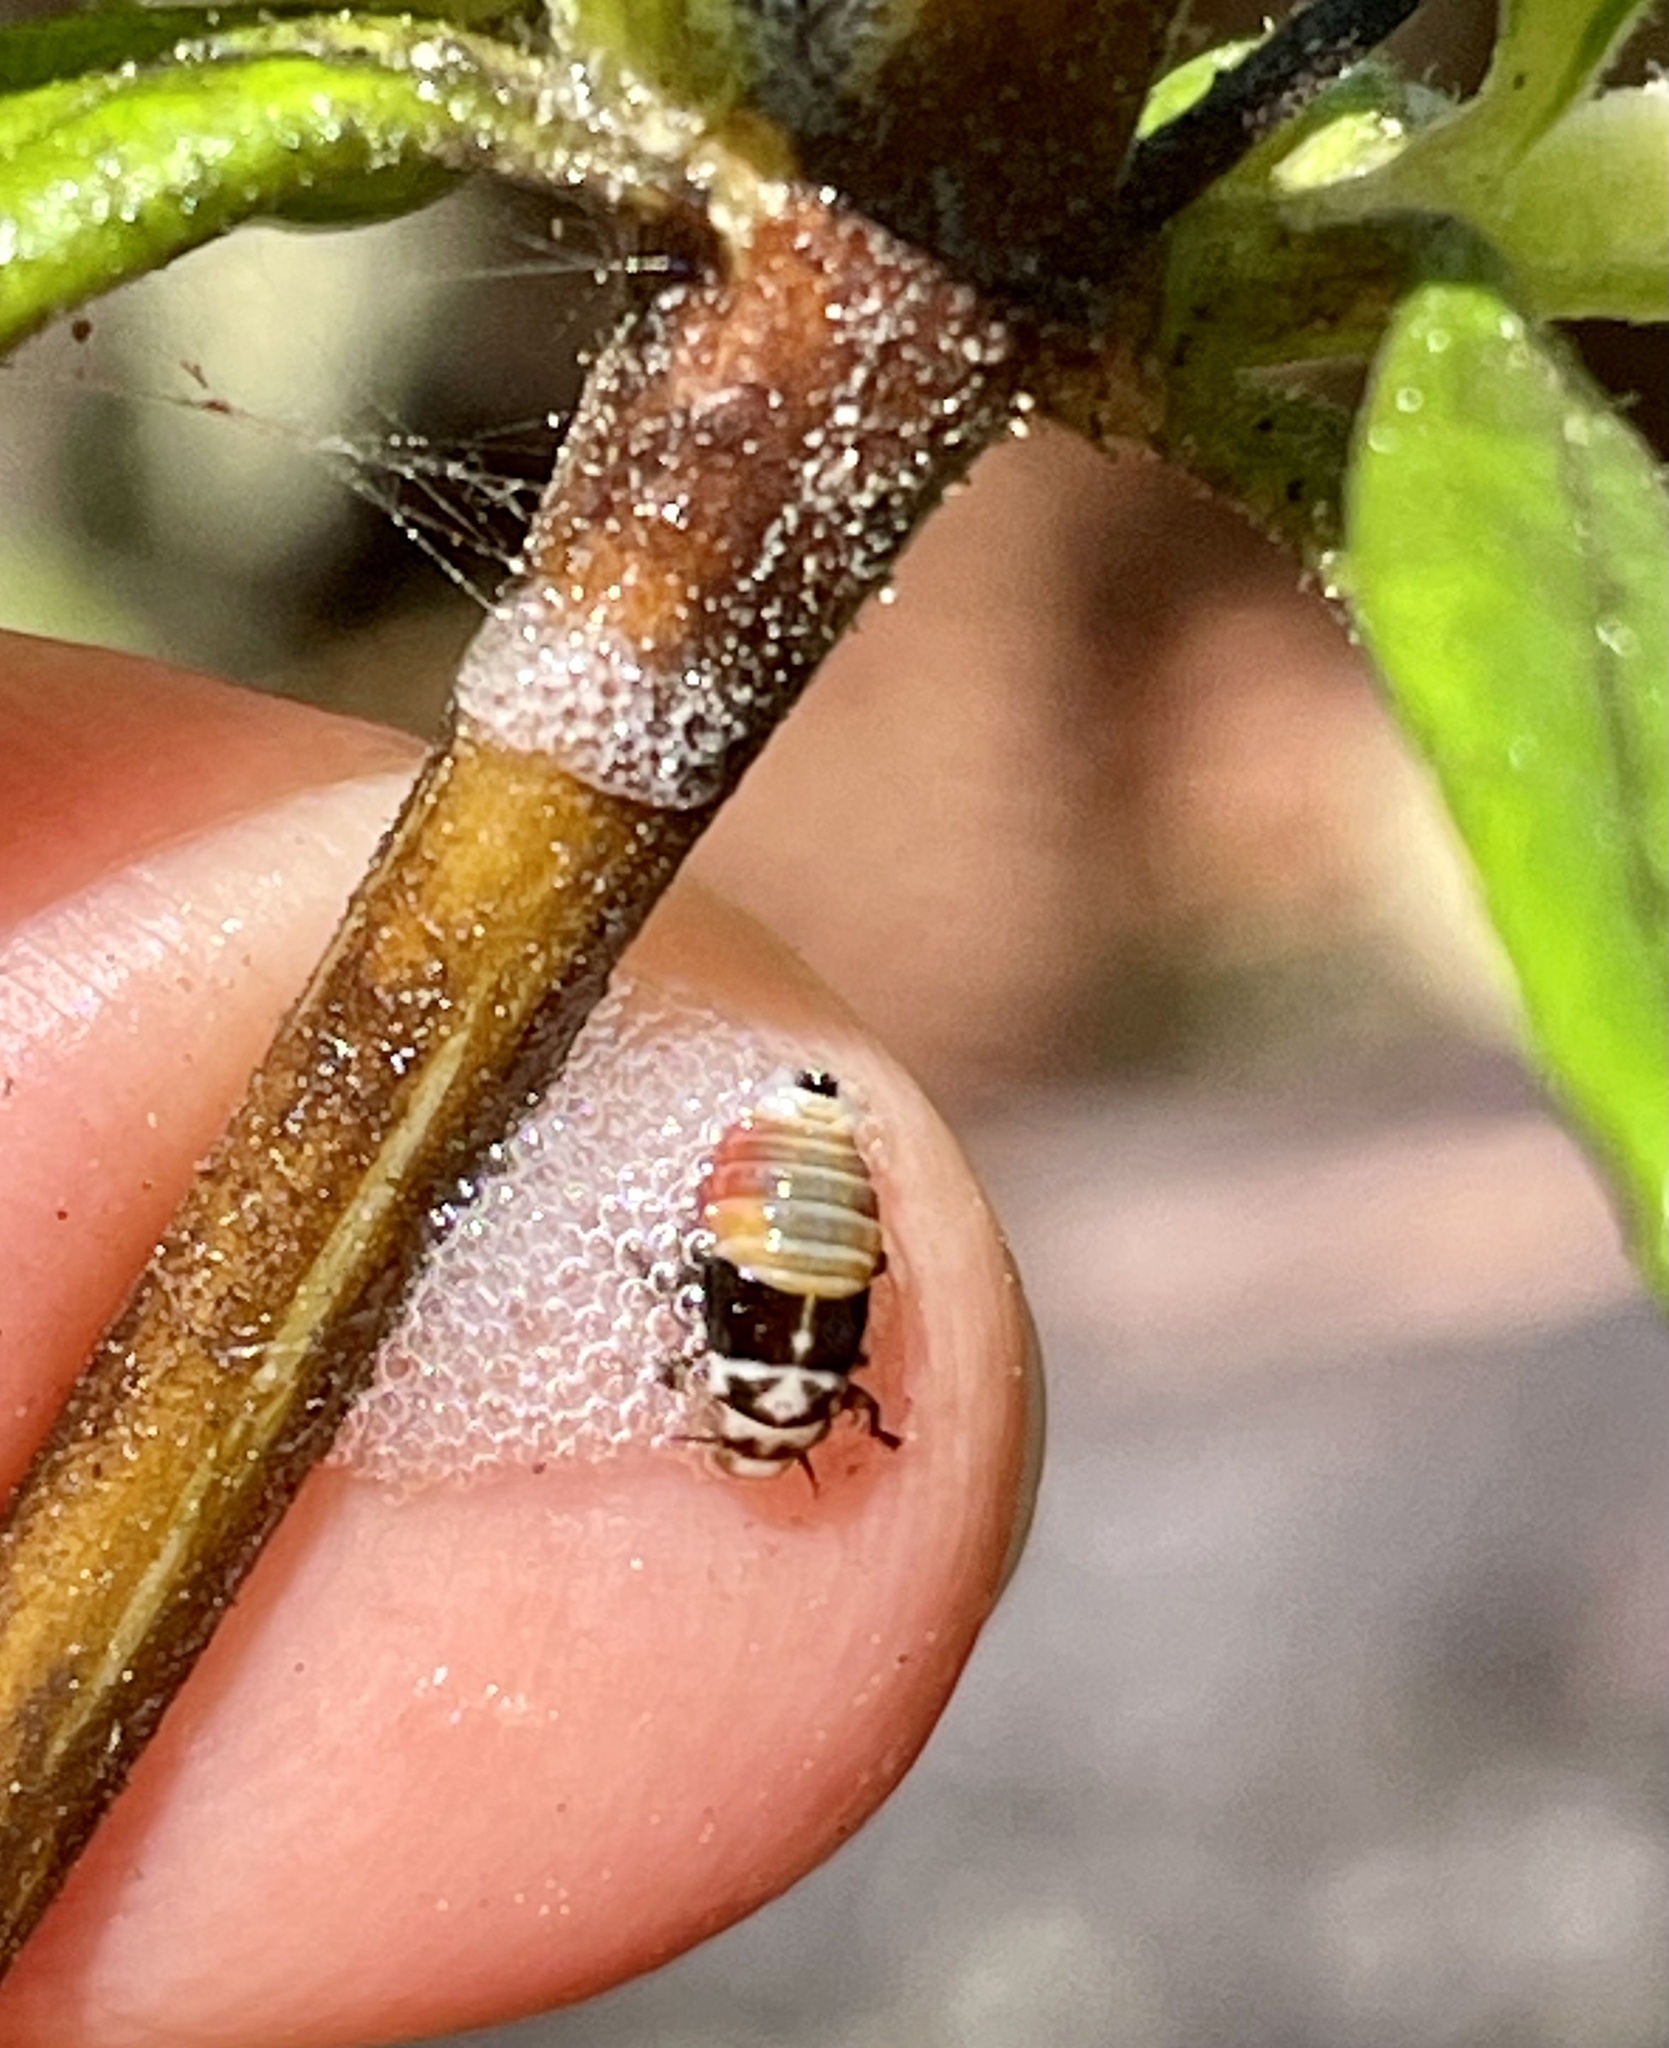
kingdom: Plantae
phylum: Tracheophyta
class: Magnoliopsida
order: Lamiales
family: Phrymaceae
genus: Diplacus
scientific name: Diplacus aurantiacus
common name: Bush monkey-flower
